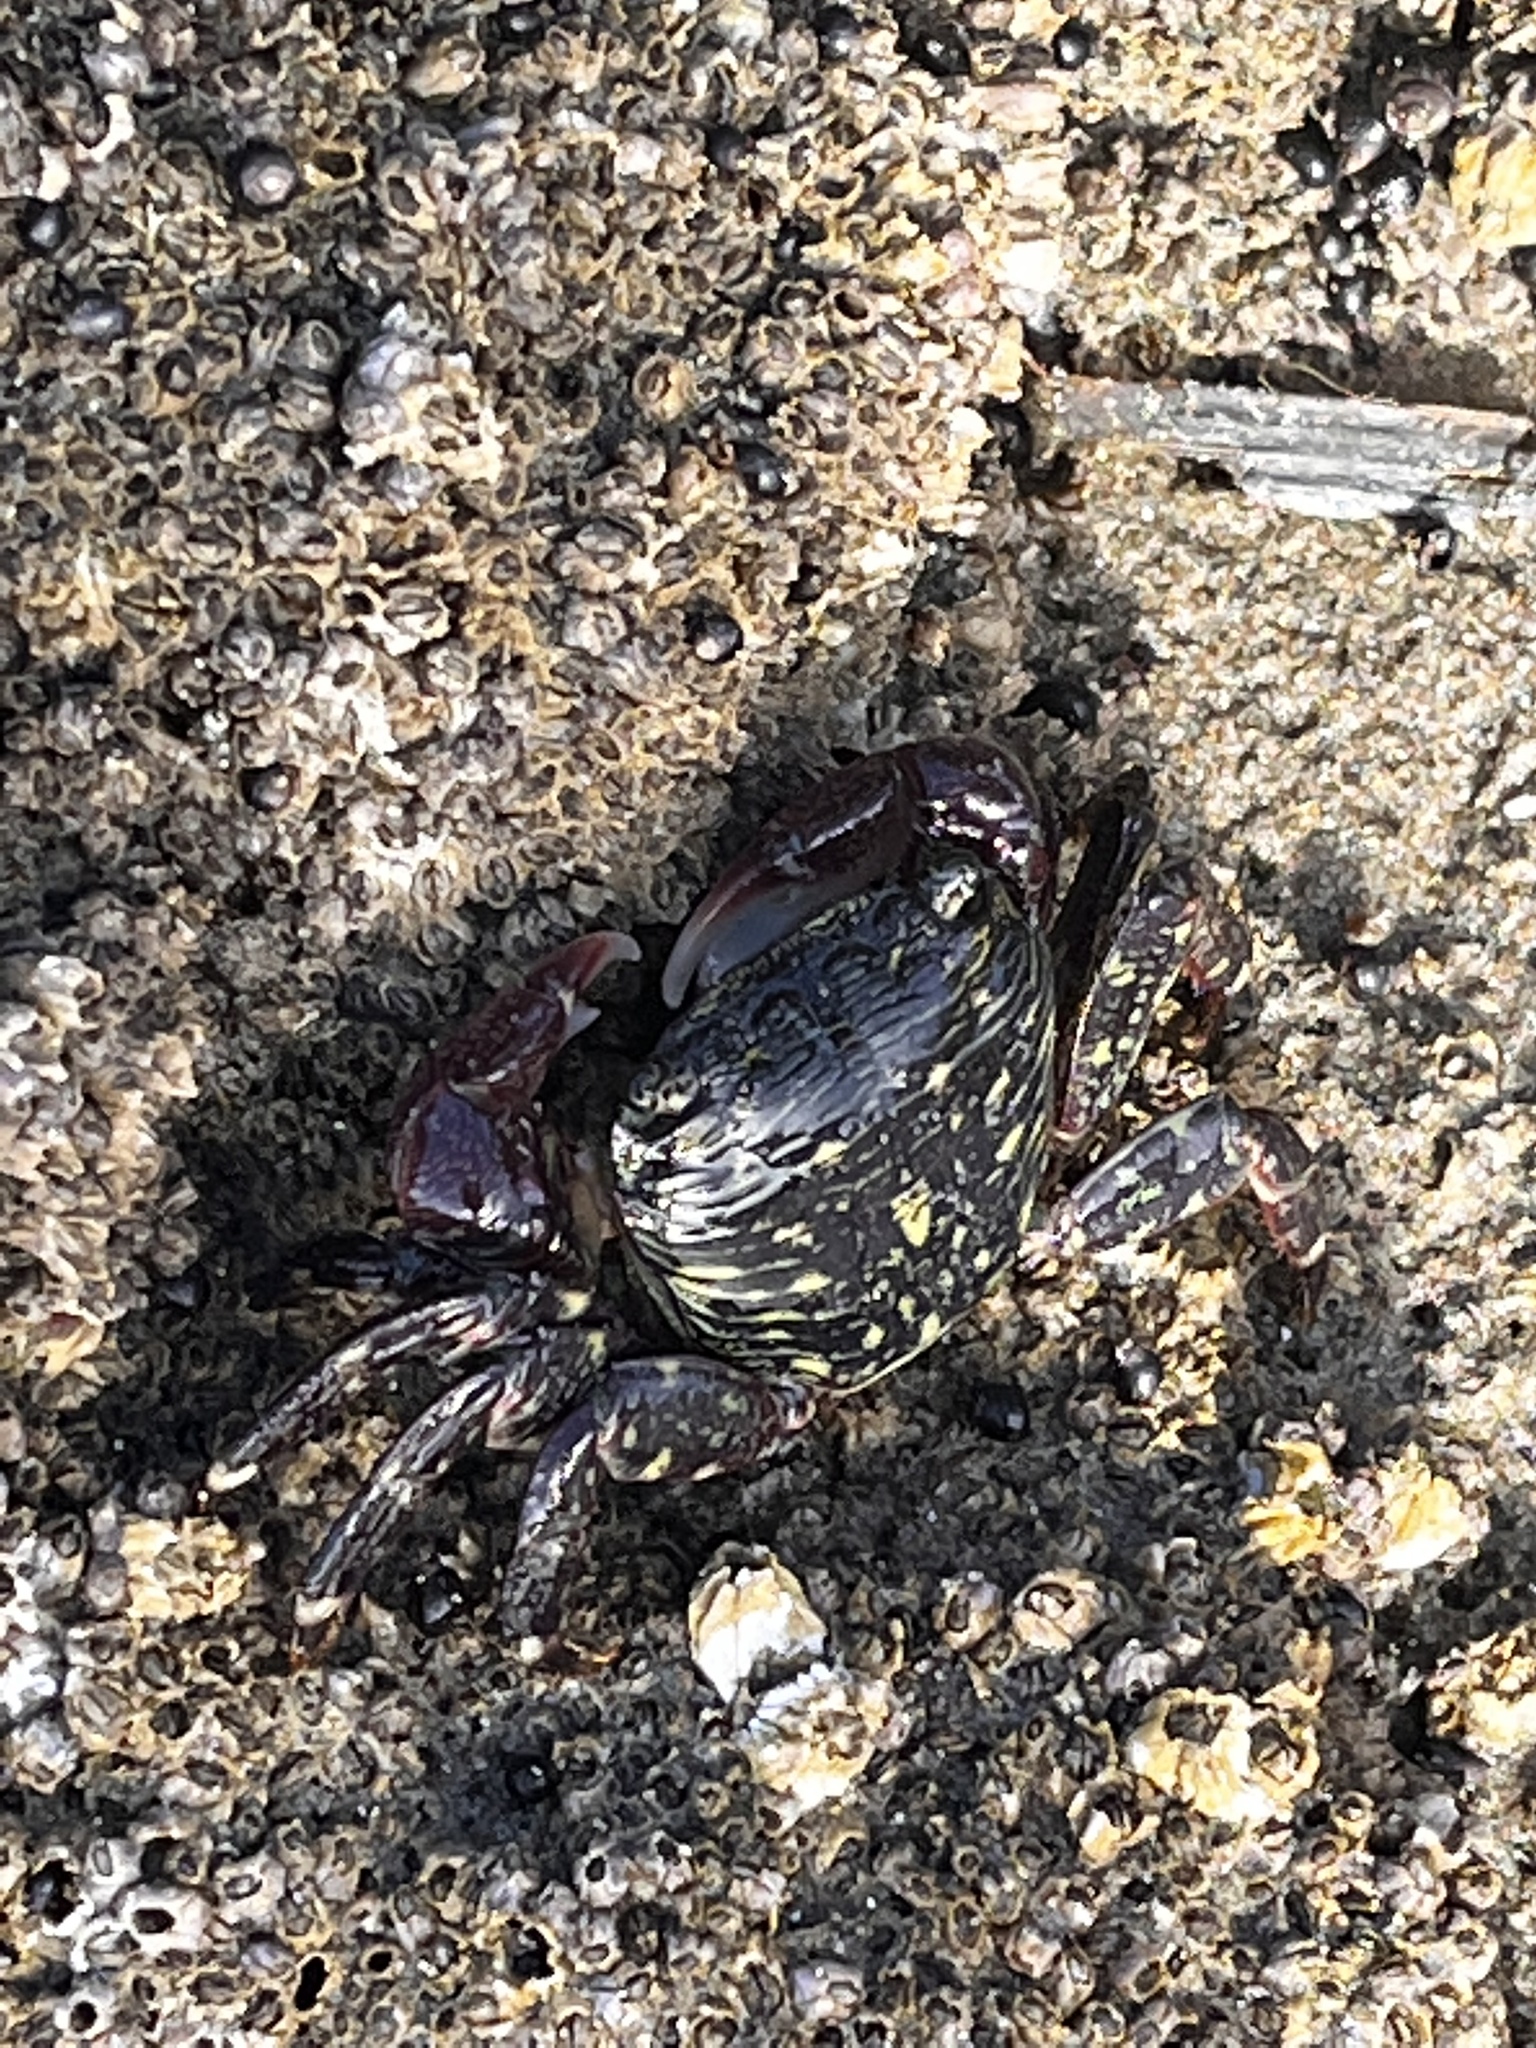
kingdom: Animalia
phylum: Arthropoda
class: Malacostraca
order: Decapoda
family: Grapsidae
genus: Pachygrapsus
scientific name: Pachygrapsus crassipes
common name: Striped shore crab
